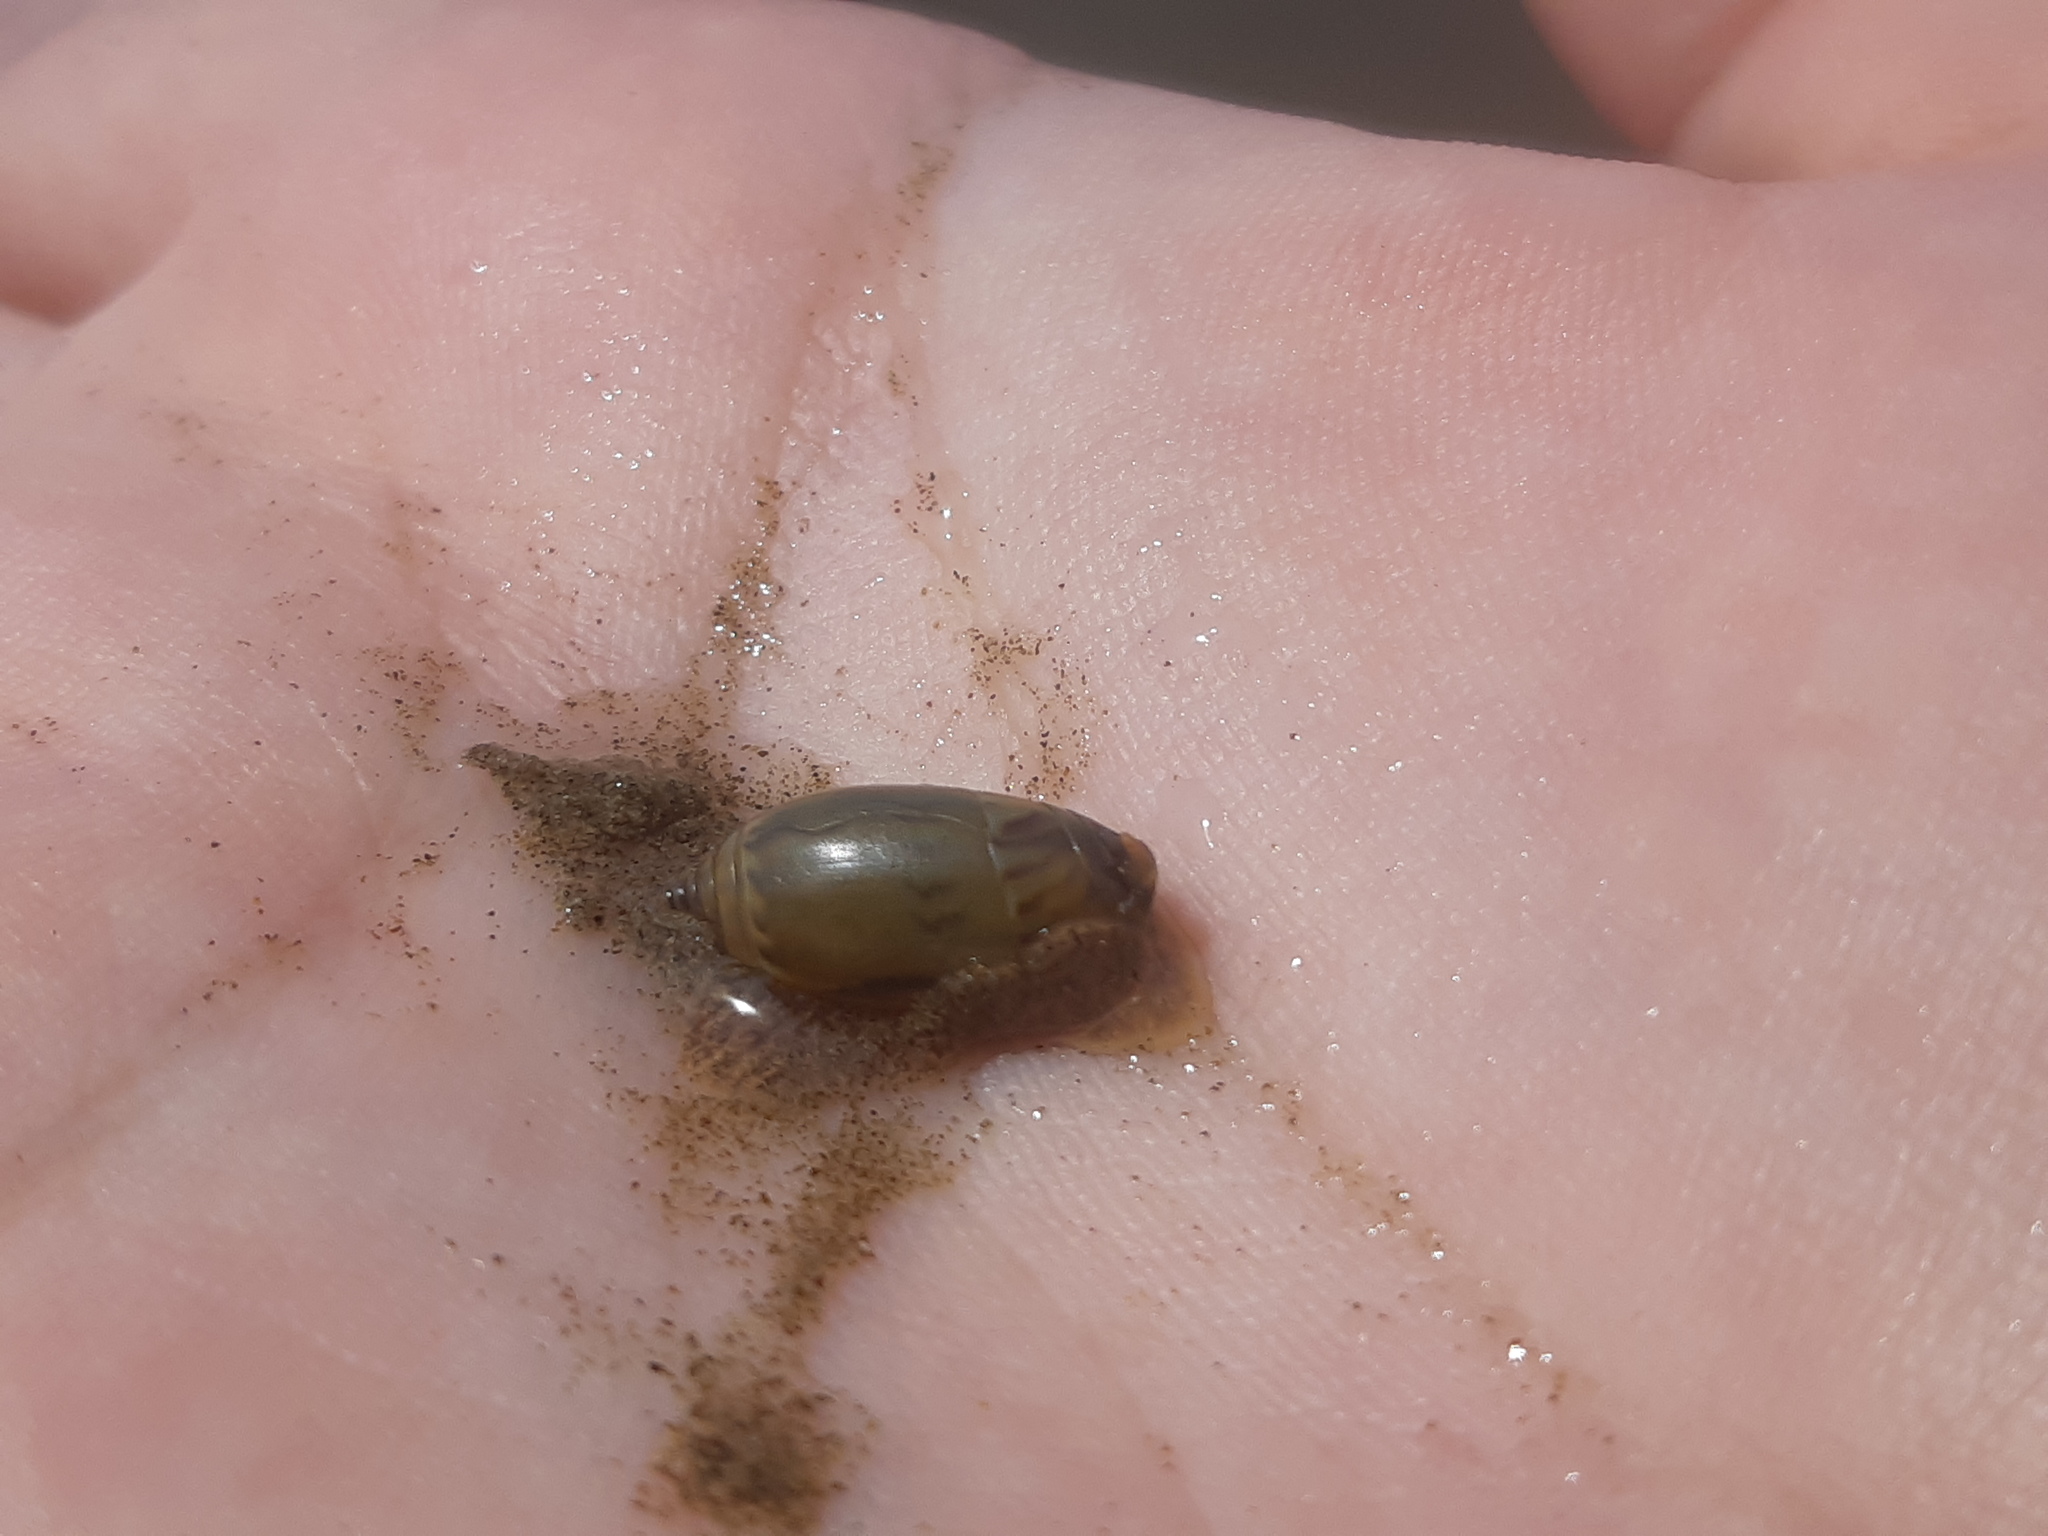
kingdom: Animalia
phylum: Mollusca
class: Gastropoda
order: Neogastropoda
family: Olividae
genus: Oliva
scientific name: Oliva undatella
